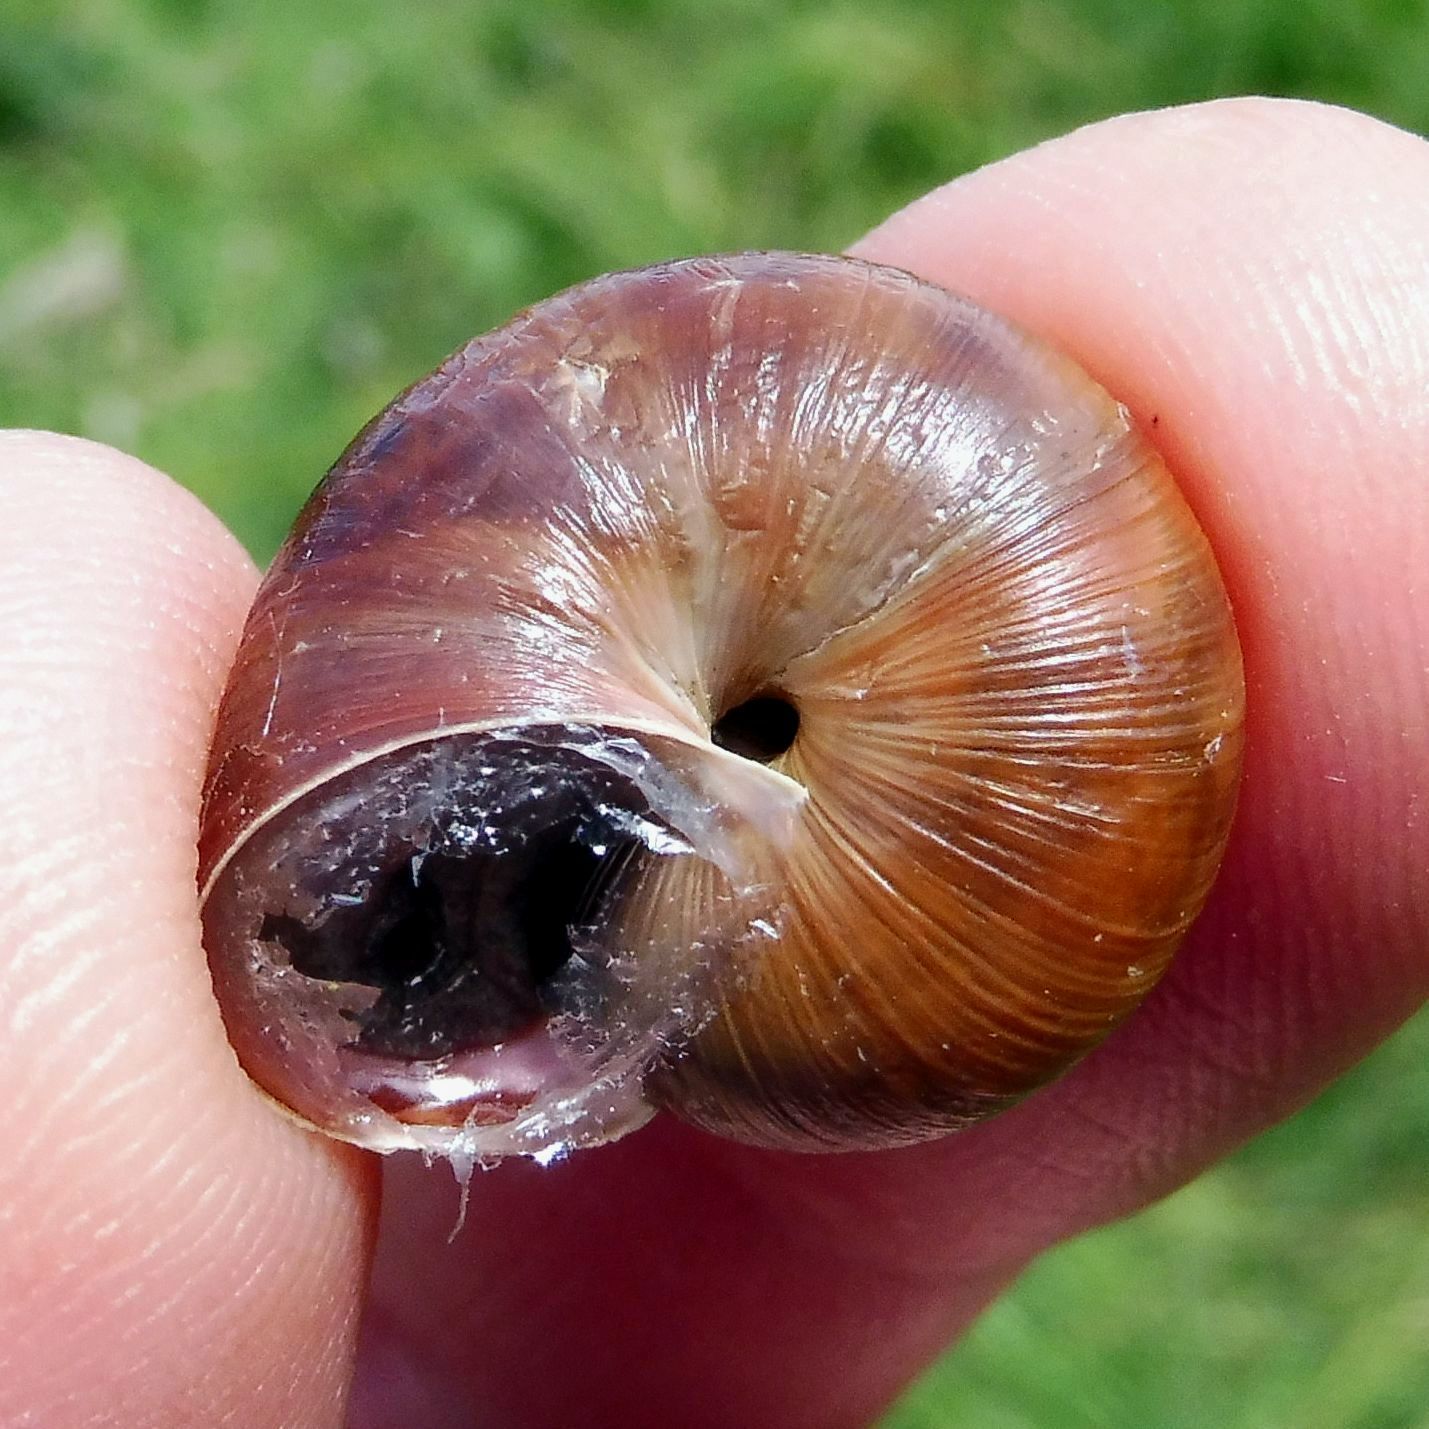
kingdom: Animalia
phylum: Mollusca
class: Gastropoda
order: Stylommatophora
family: Hygromiidae
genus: Monacha
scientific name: Monacha cantiana
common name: Kentish snail
